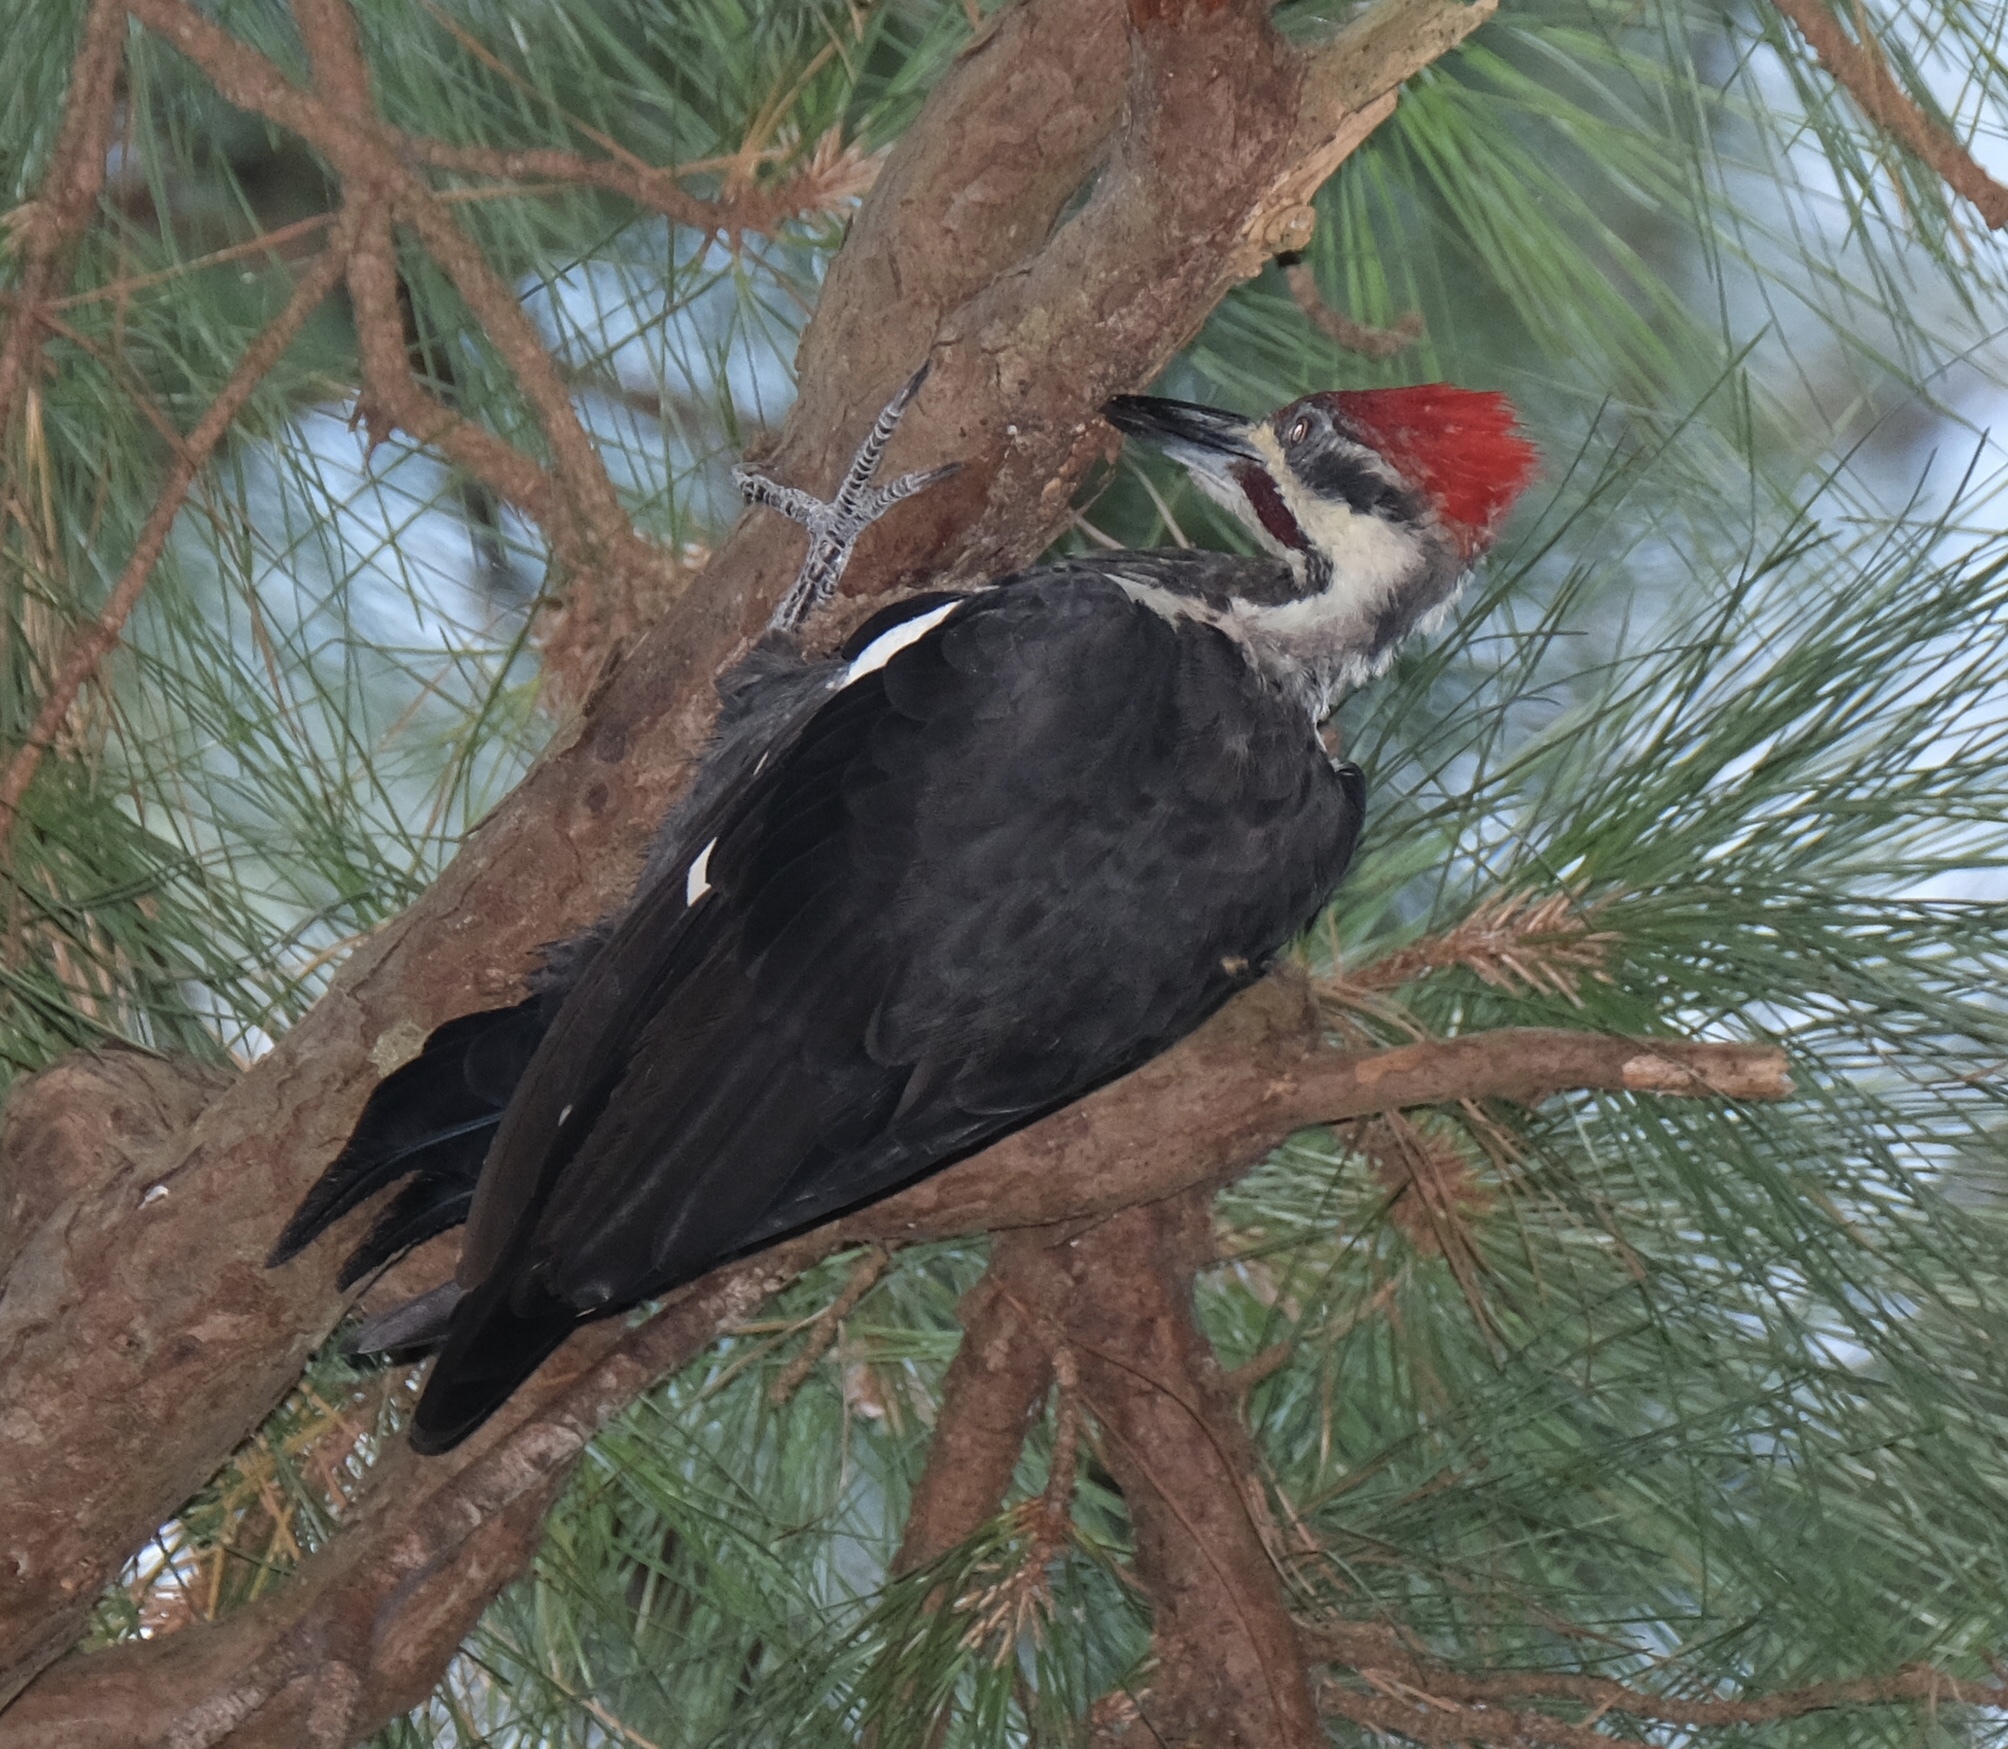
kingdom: Animalia
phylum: Chordata
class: Aves
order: Piciformes
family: Picidae
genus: Dryocopus
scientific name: Dryocopus pileatus
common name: Pileated woodpecker
